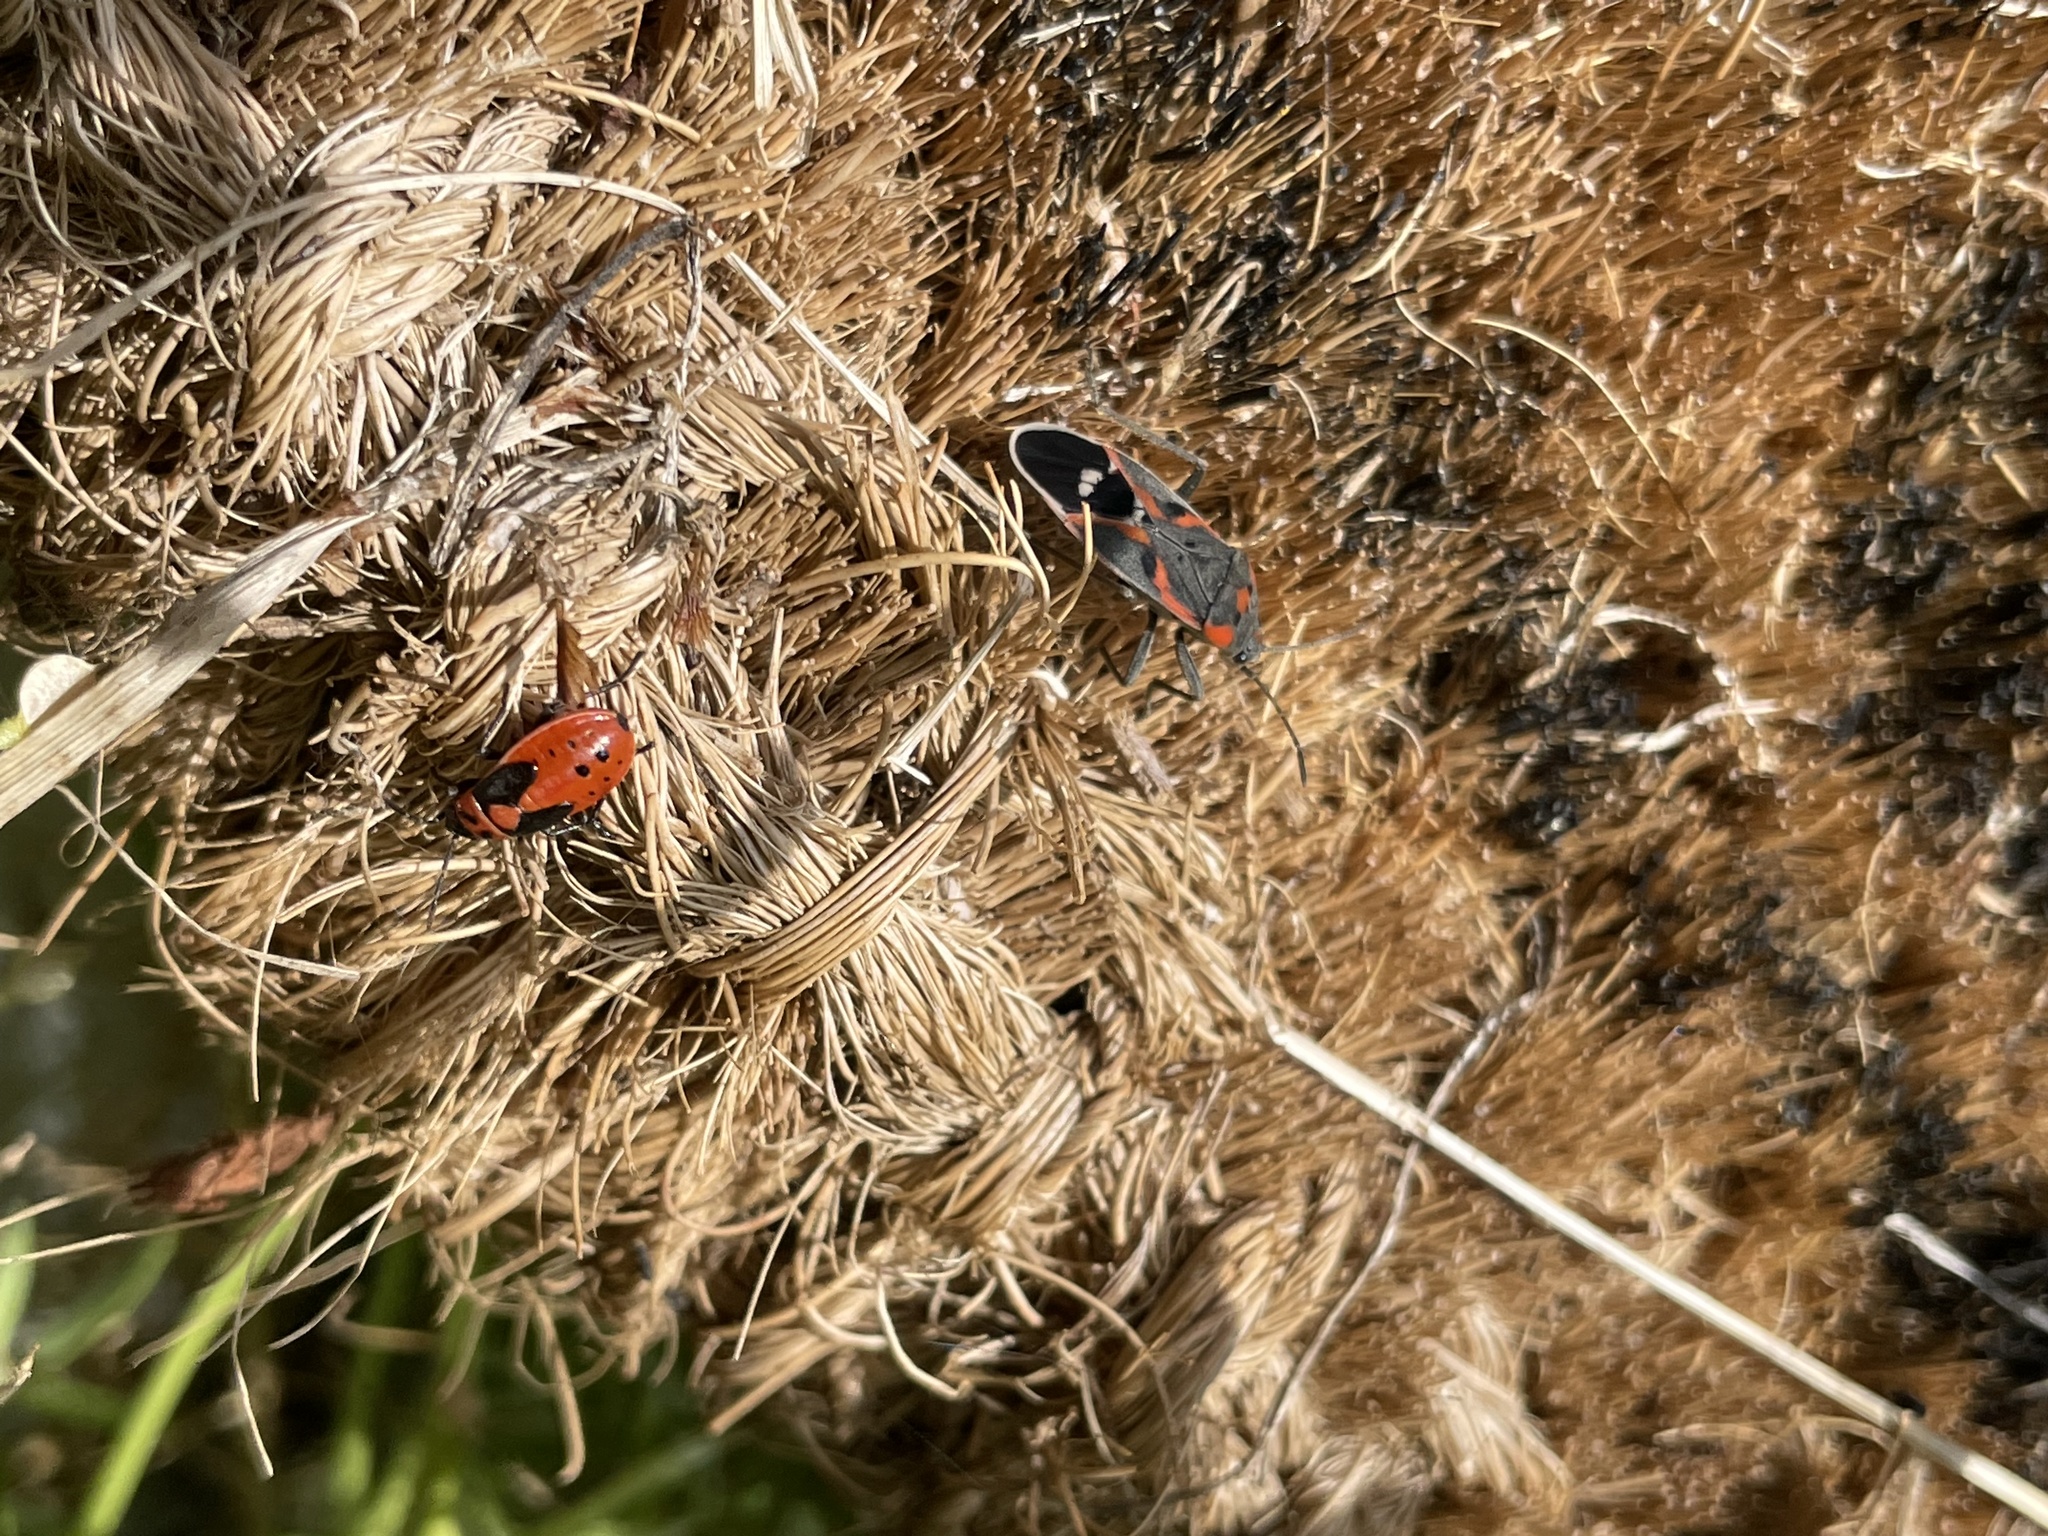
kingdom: Animalia
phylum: Arthropoda
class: Insecta
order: Hemiptera
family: Lygaeidae
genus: Lygaeus
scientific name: Lygaeus kalmii
